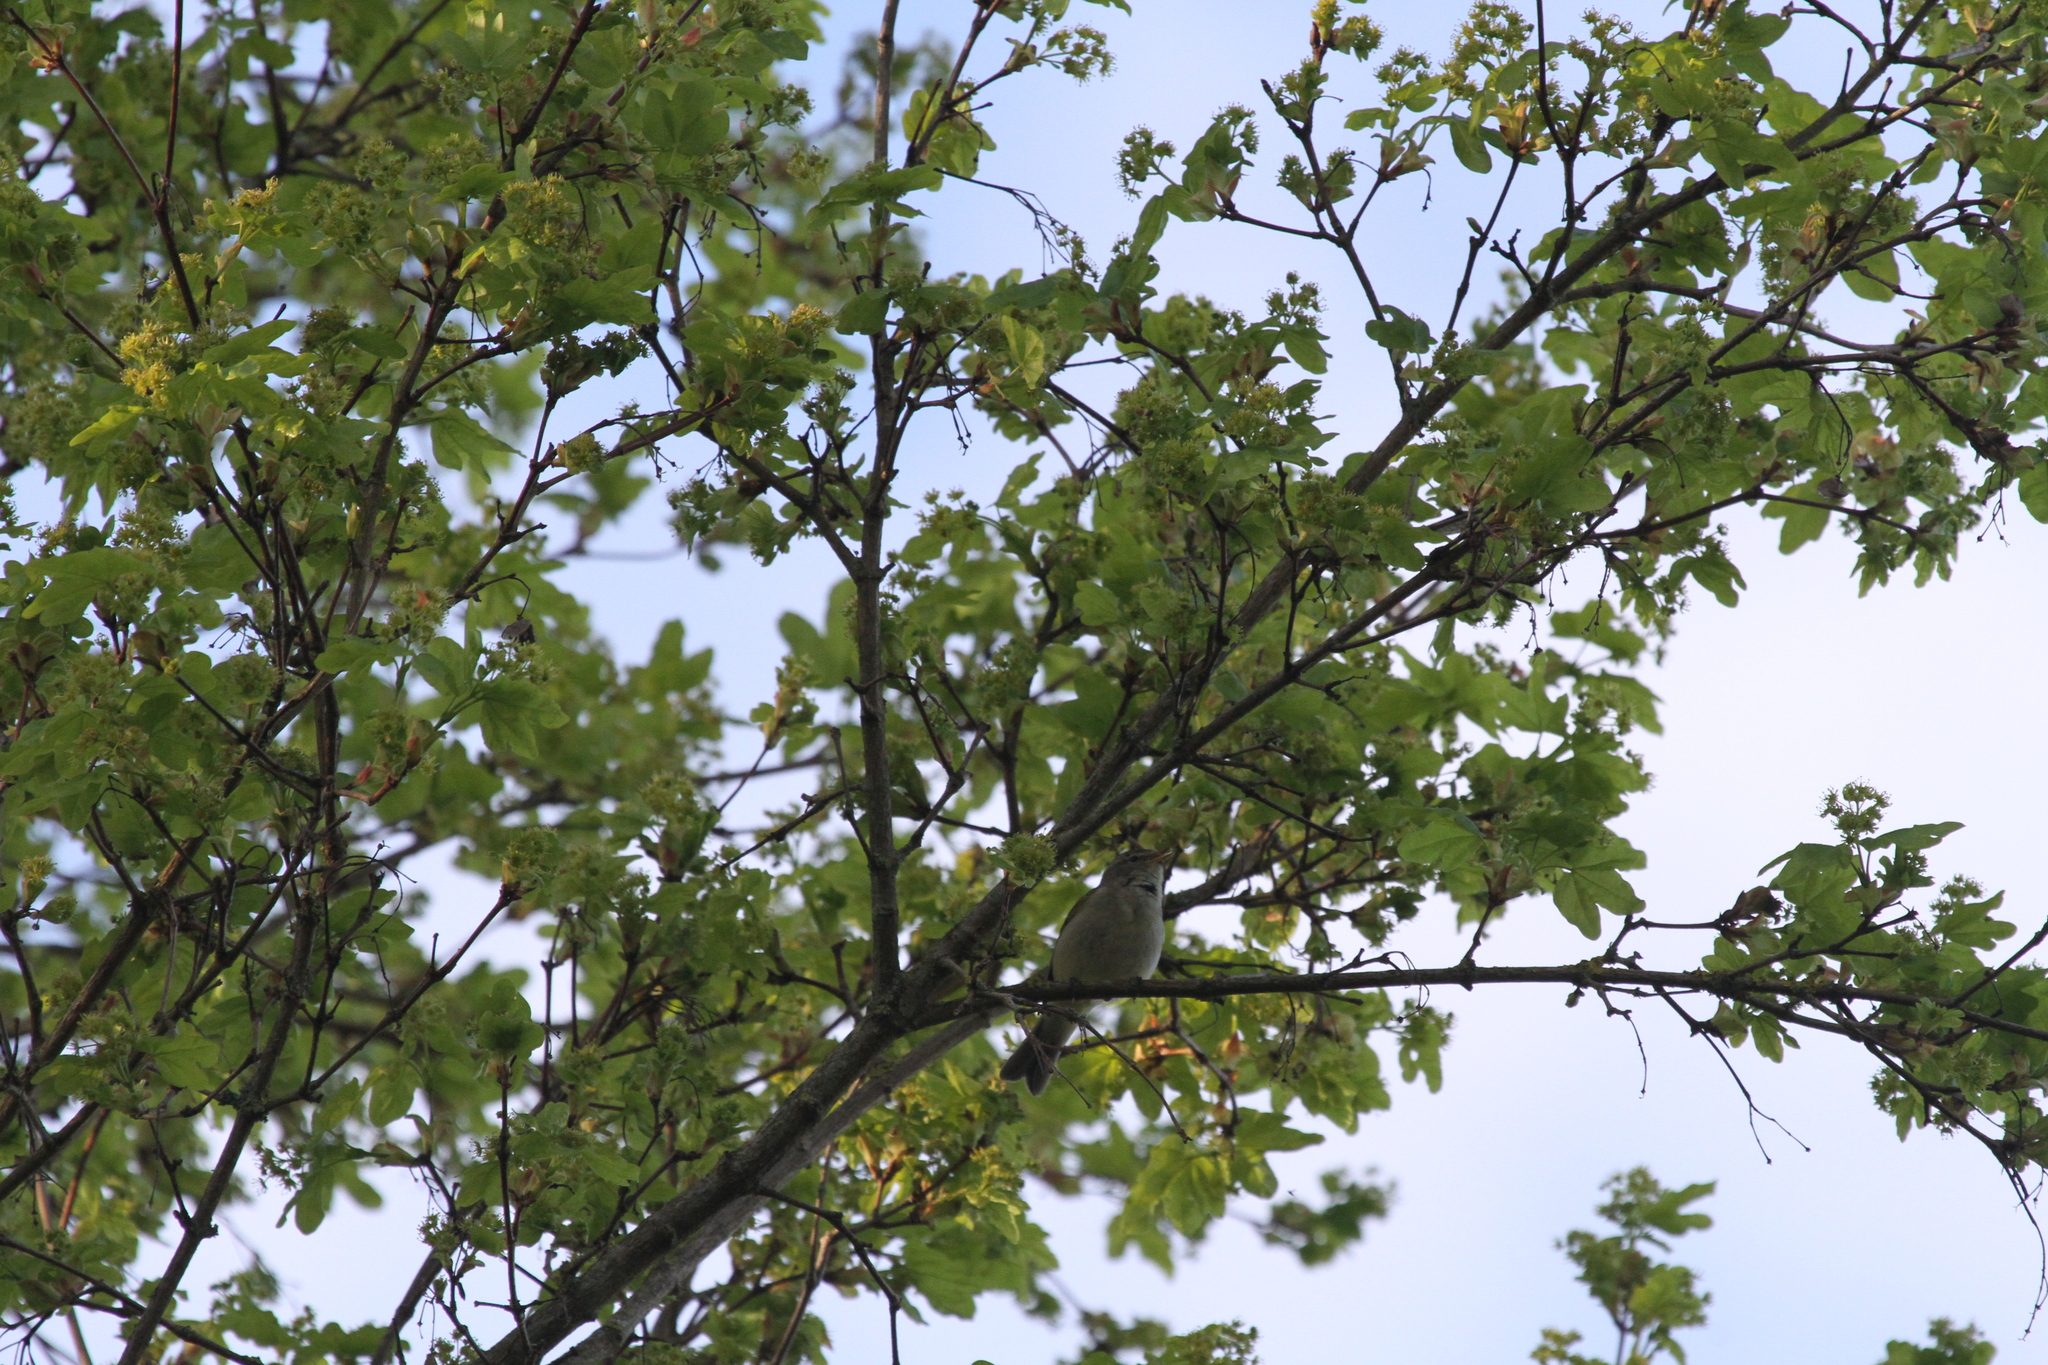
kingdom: Animalia
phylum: Chordata
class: Aves
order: Passeriformes
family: Phylloscopidae
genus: Phylloscopus
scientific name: Phylloscopus collybita
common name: Common chiffchaff
